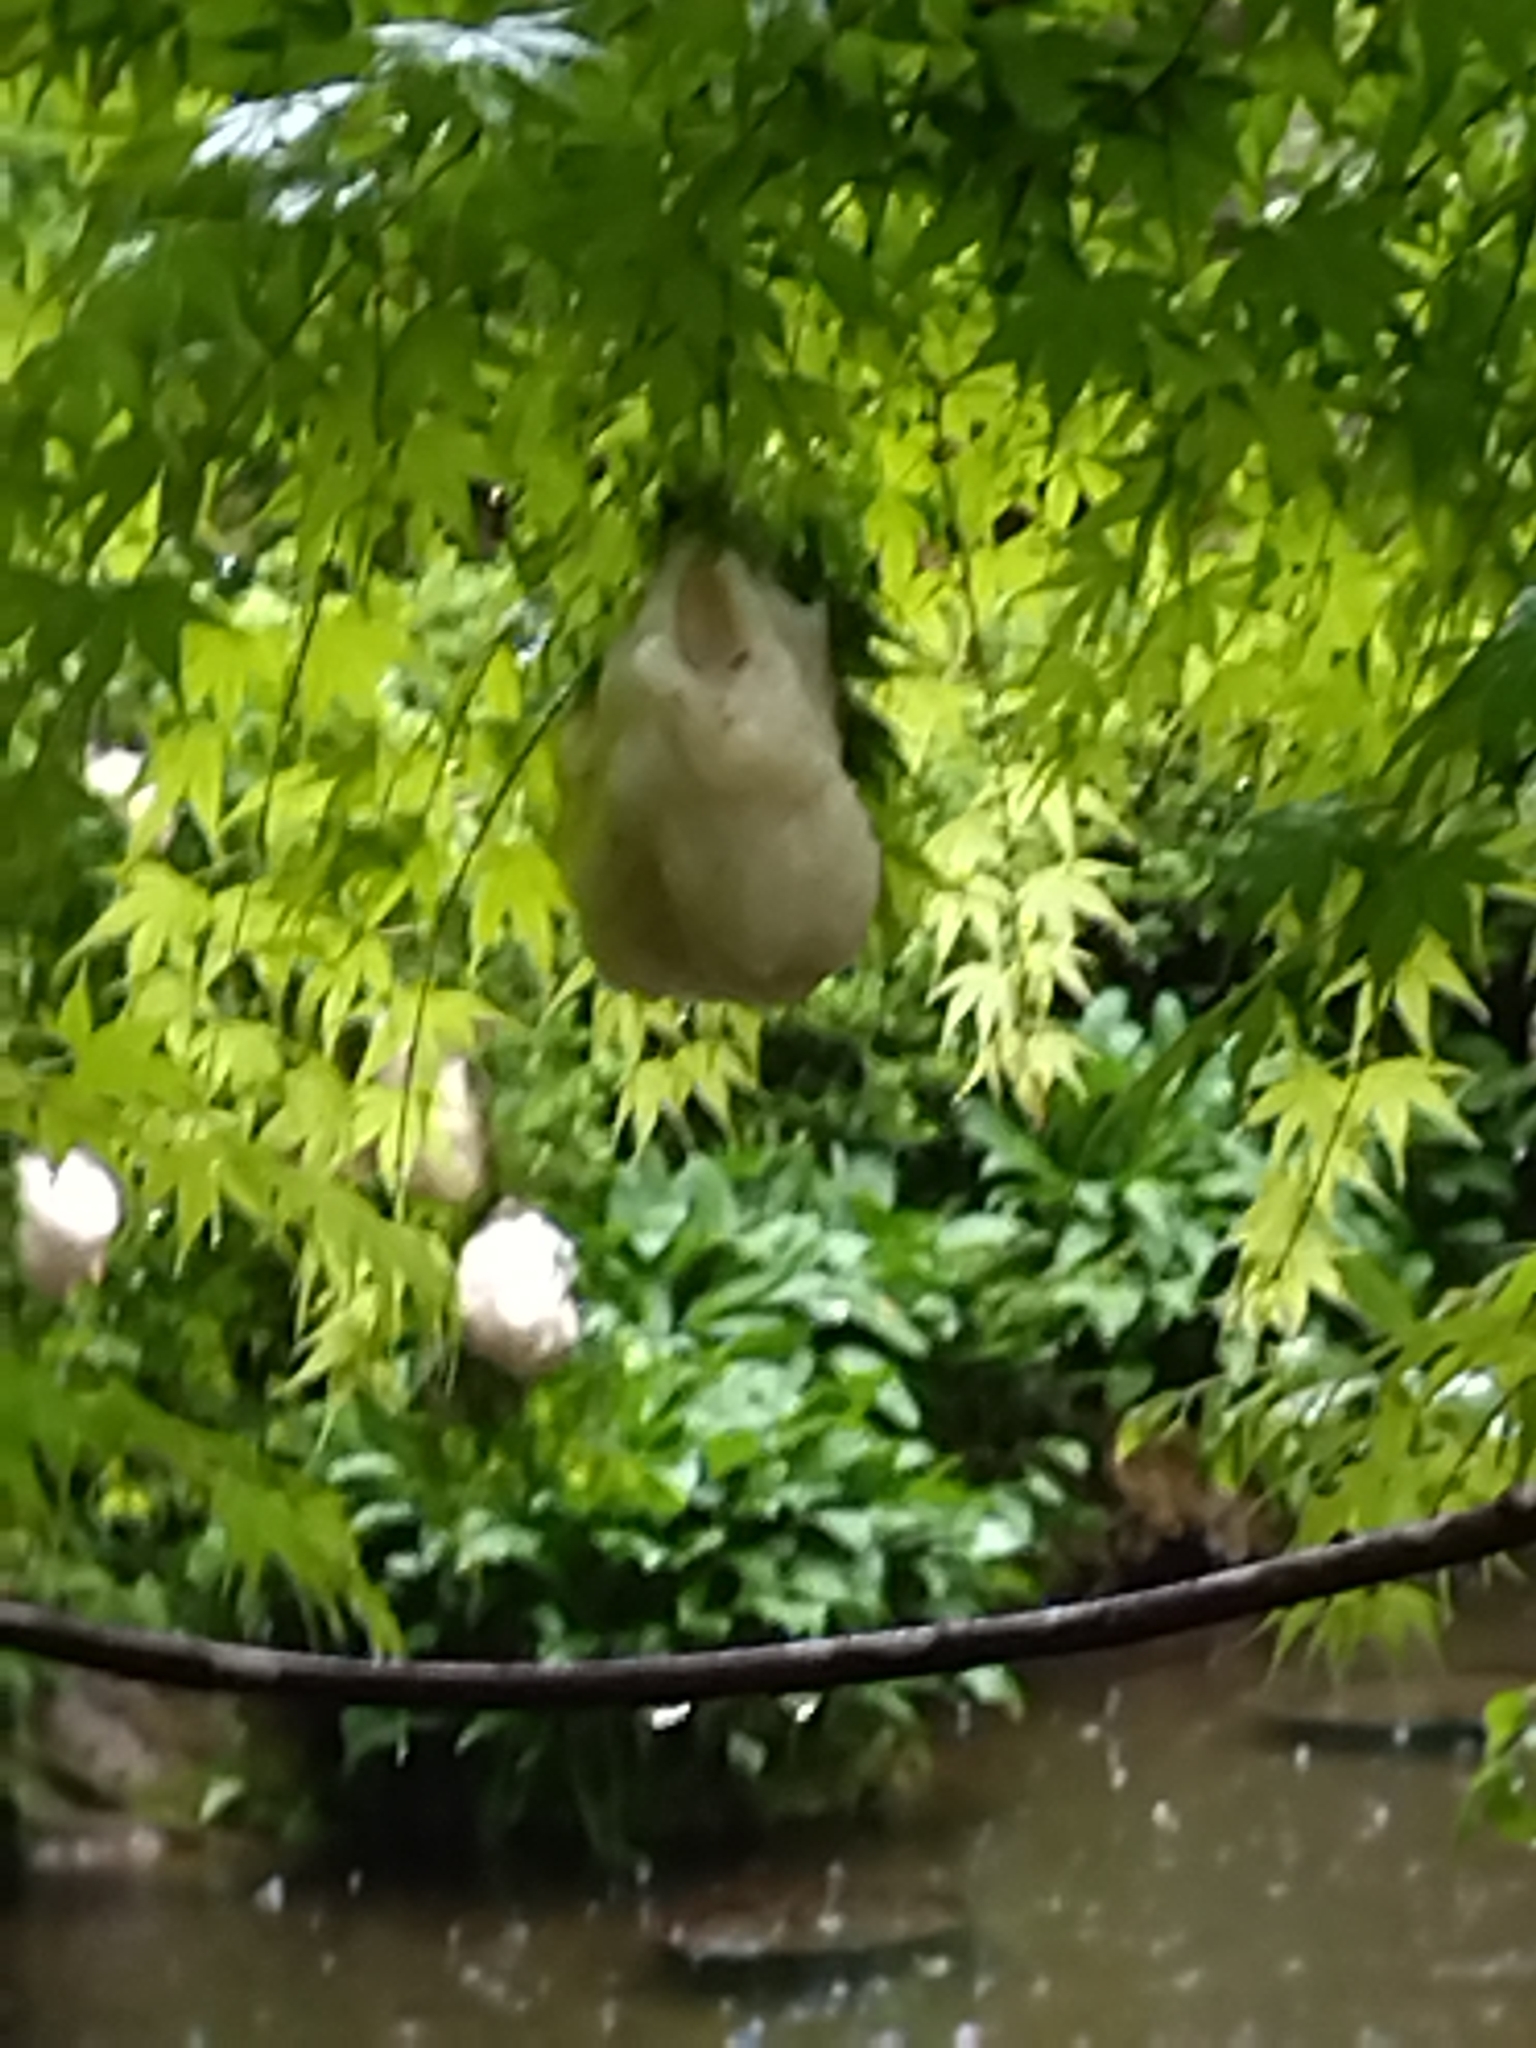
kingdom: Animalia
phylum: Chordata
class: Amphibia
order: Anura
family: Rhacophoridae
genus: Zhangixalus
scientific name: Zhangixalus arboreus
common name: Forest green tree frog
